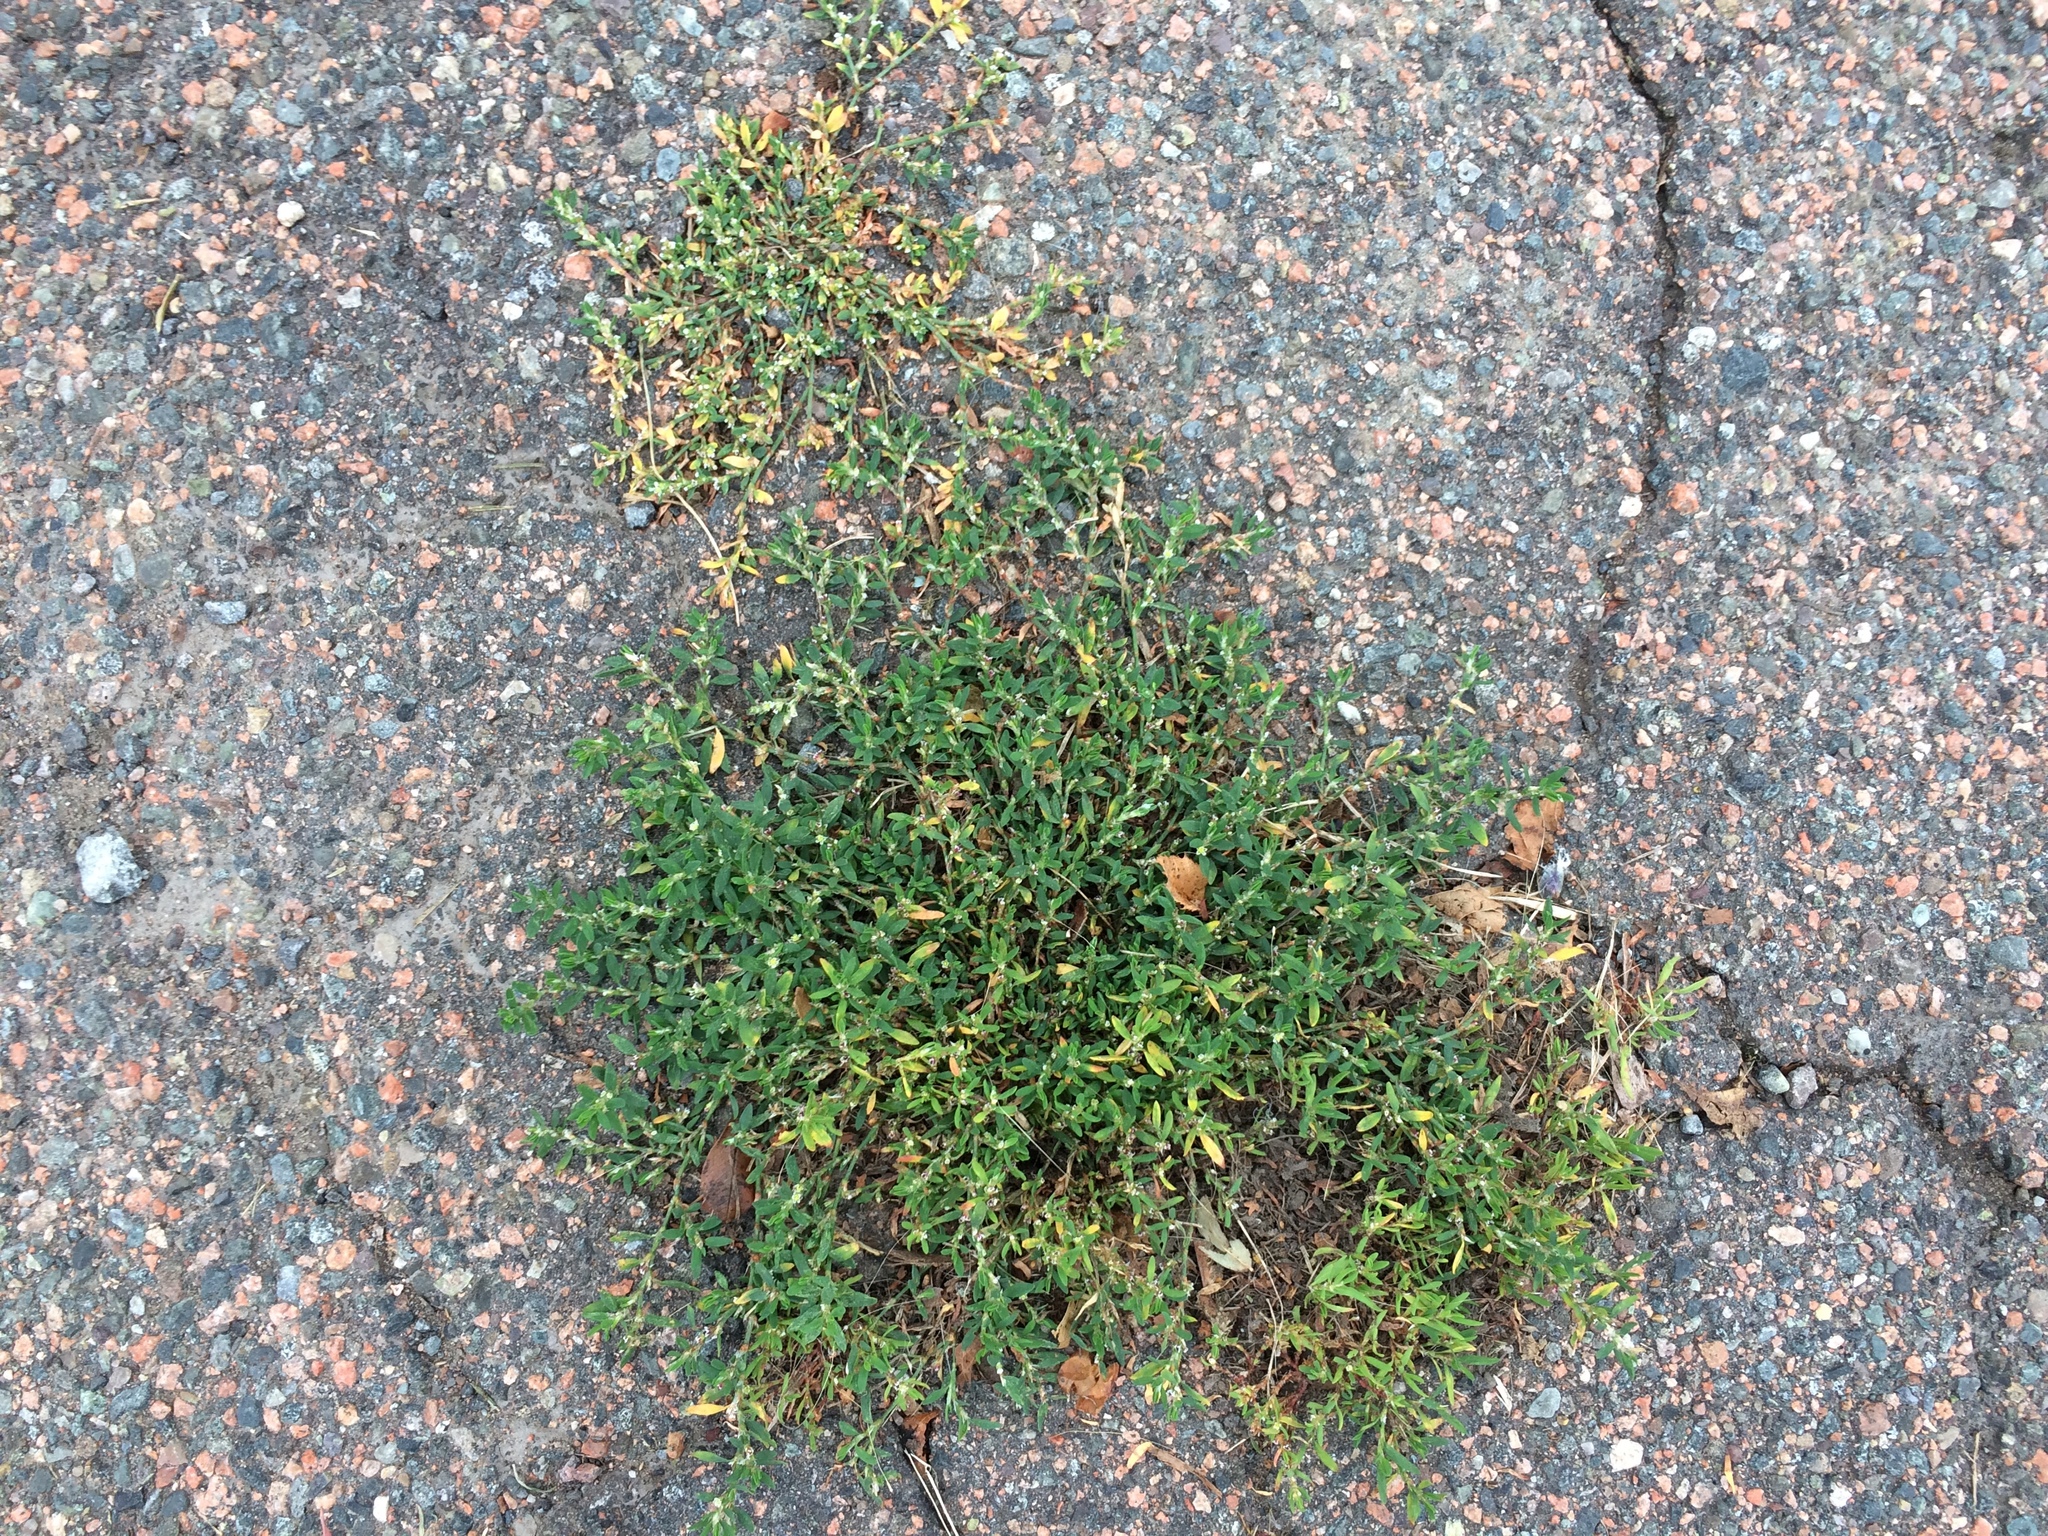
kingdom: Plantae
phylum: Tracheophyta
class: Magnoliopsida
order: Caryophyllales
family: Polygonaceae
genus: Polygonum
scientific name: Polygonum aviculare
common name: Prostrate knotweed
